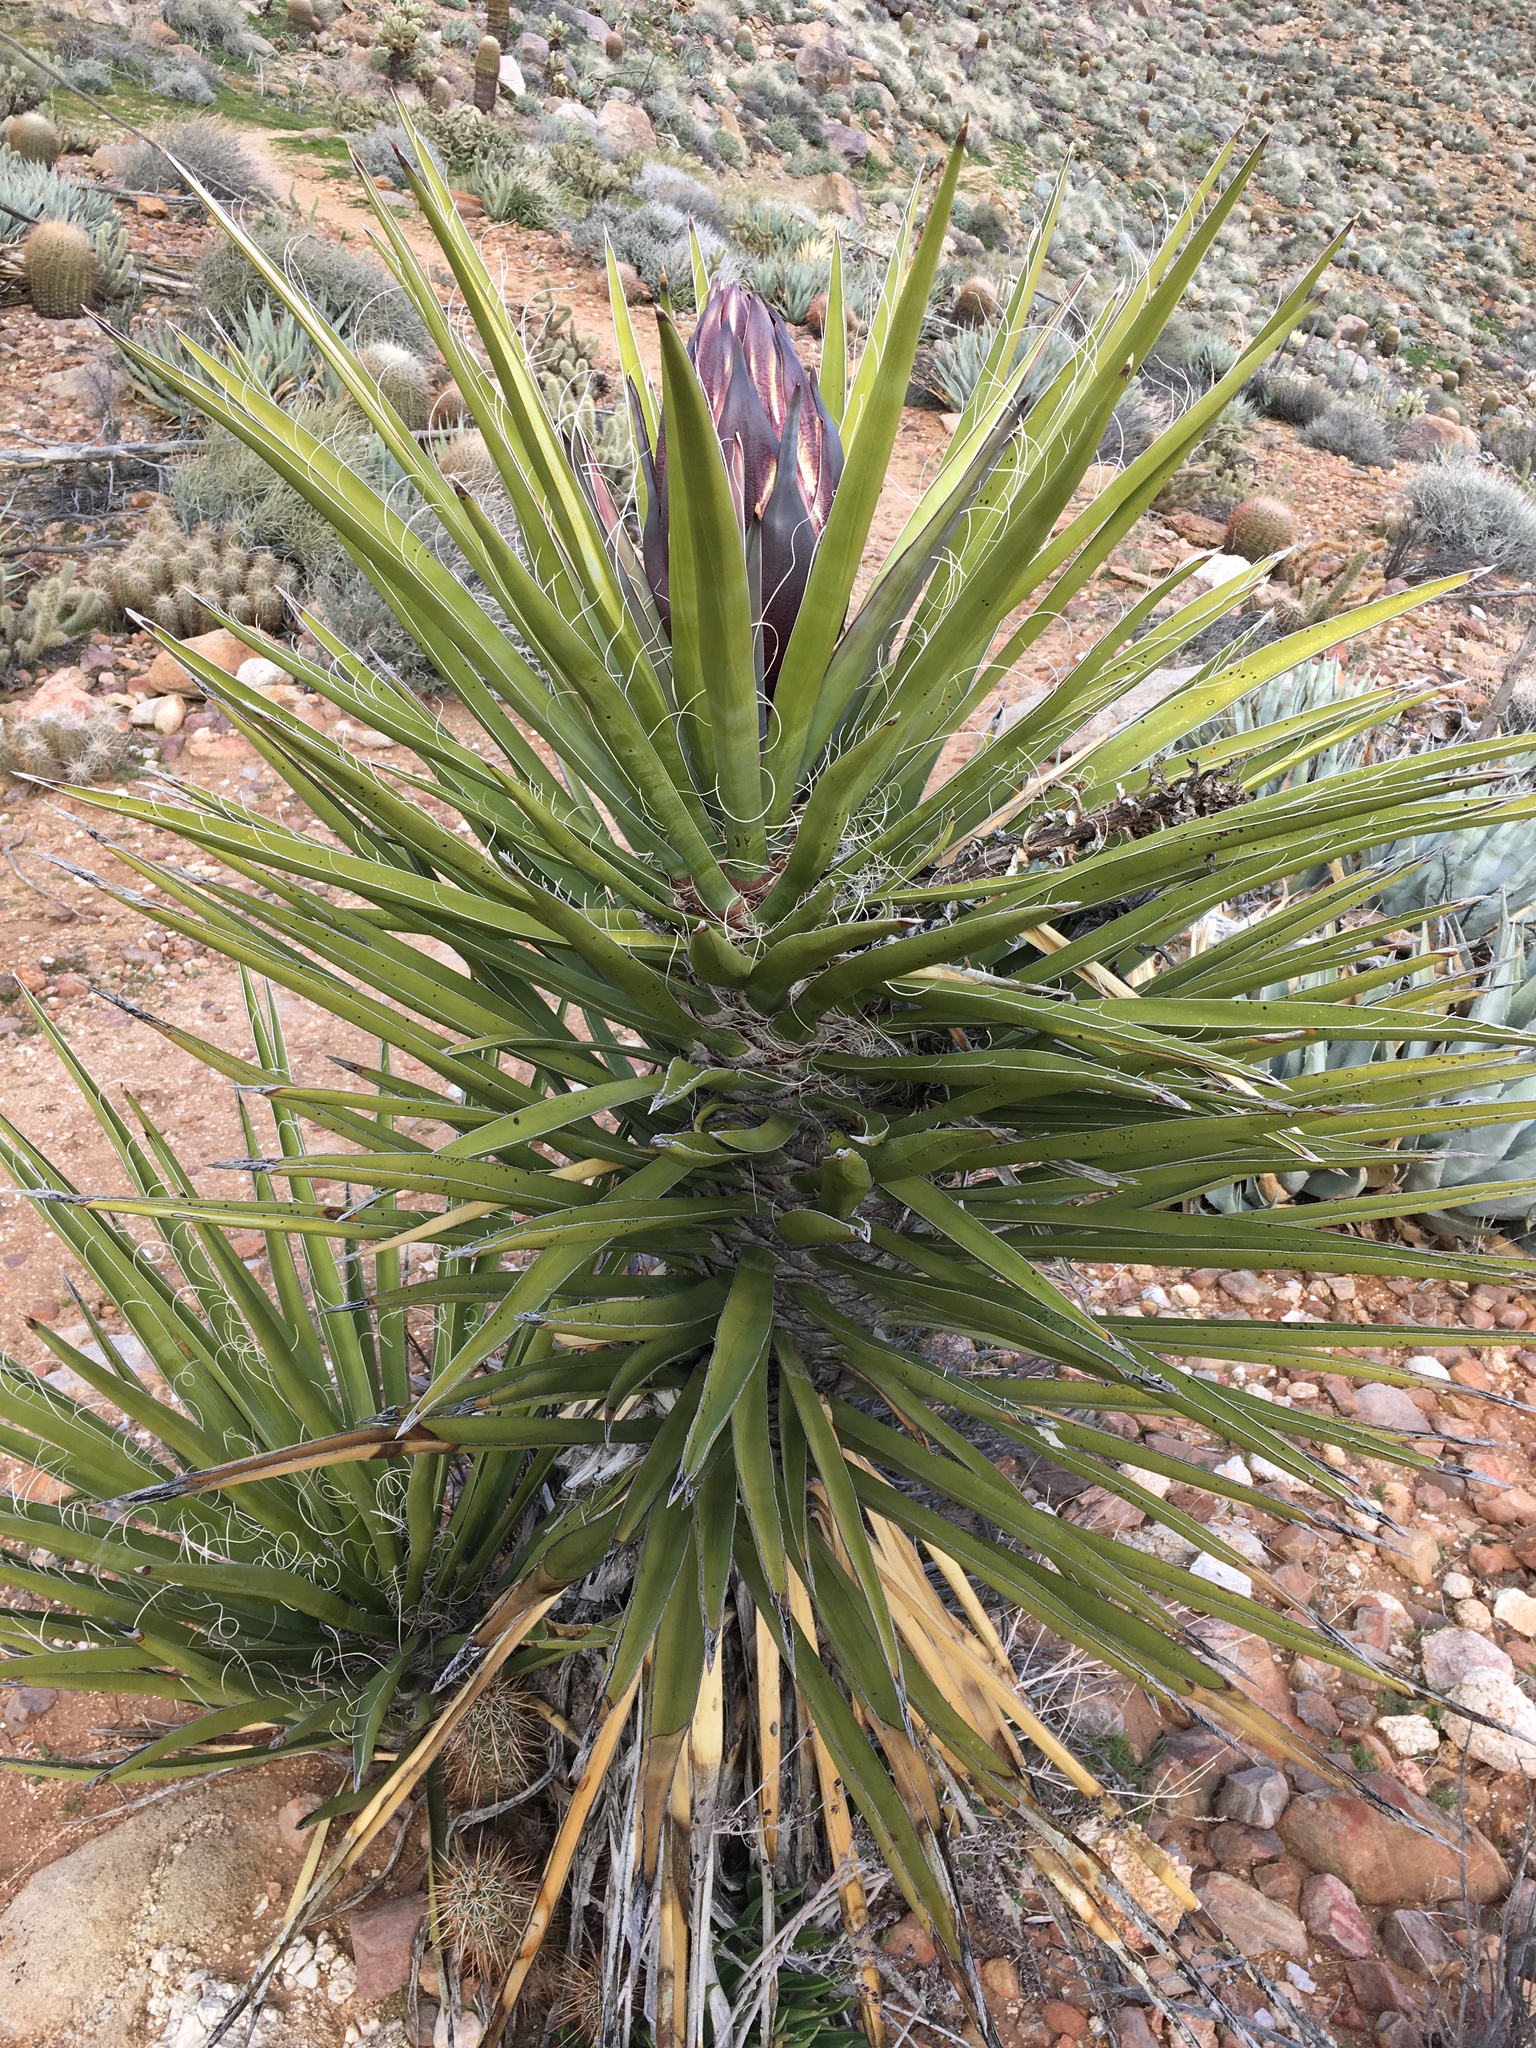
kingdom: Plantae
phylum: Tracheophyta
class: Liliopsida
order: Asparagales
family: Asparagaceae
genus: Yucca
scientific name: Yucca schidigera
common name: Mojave yucca
